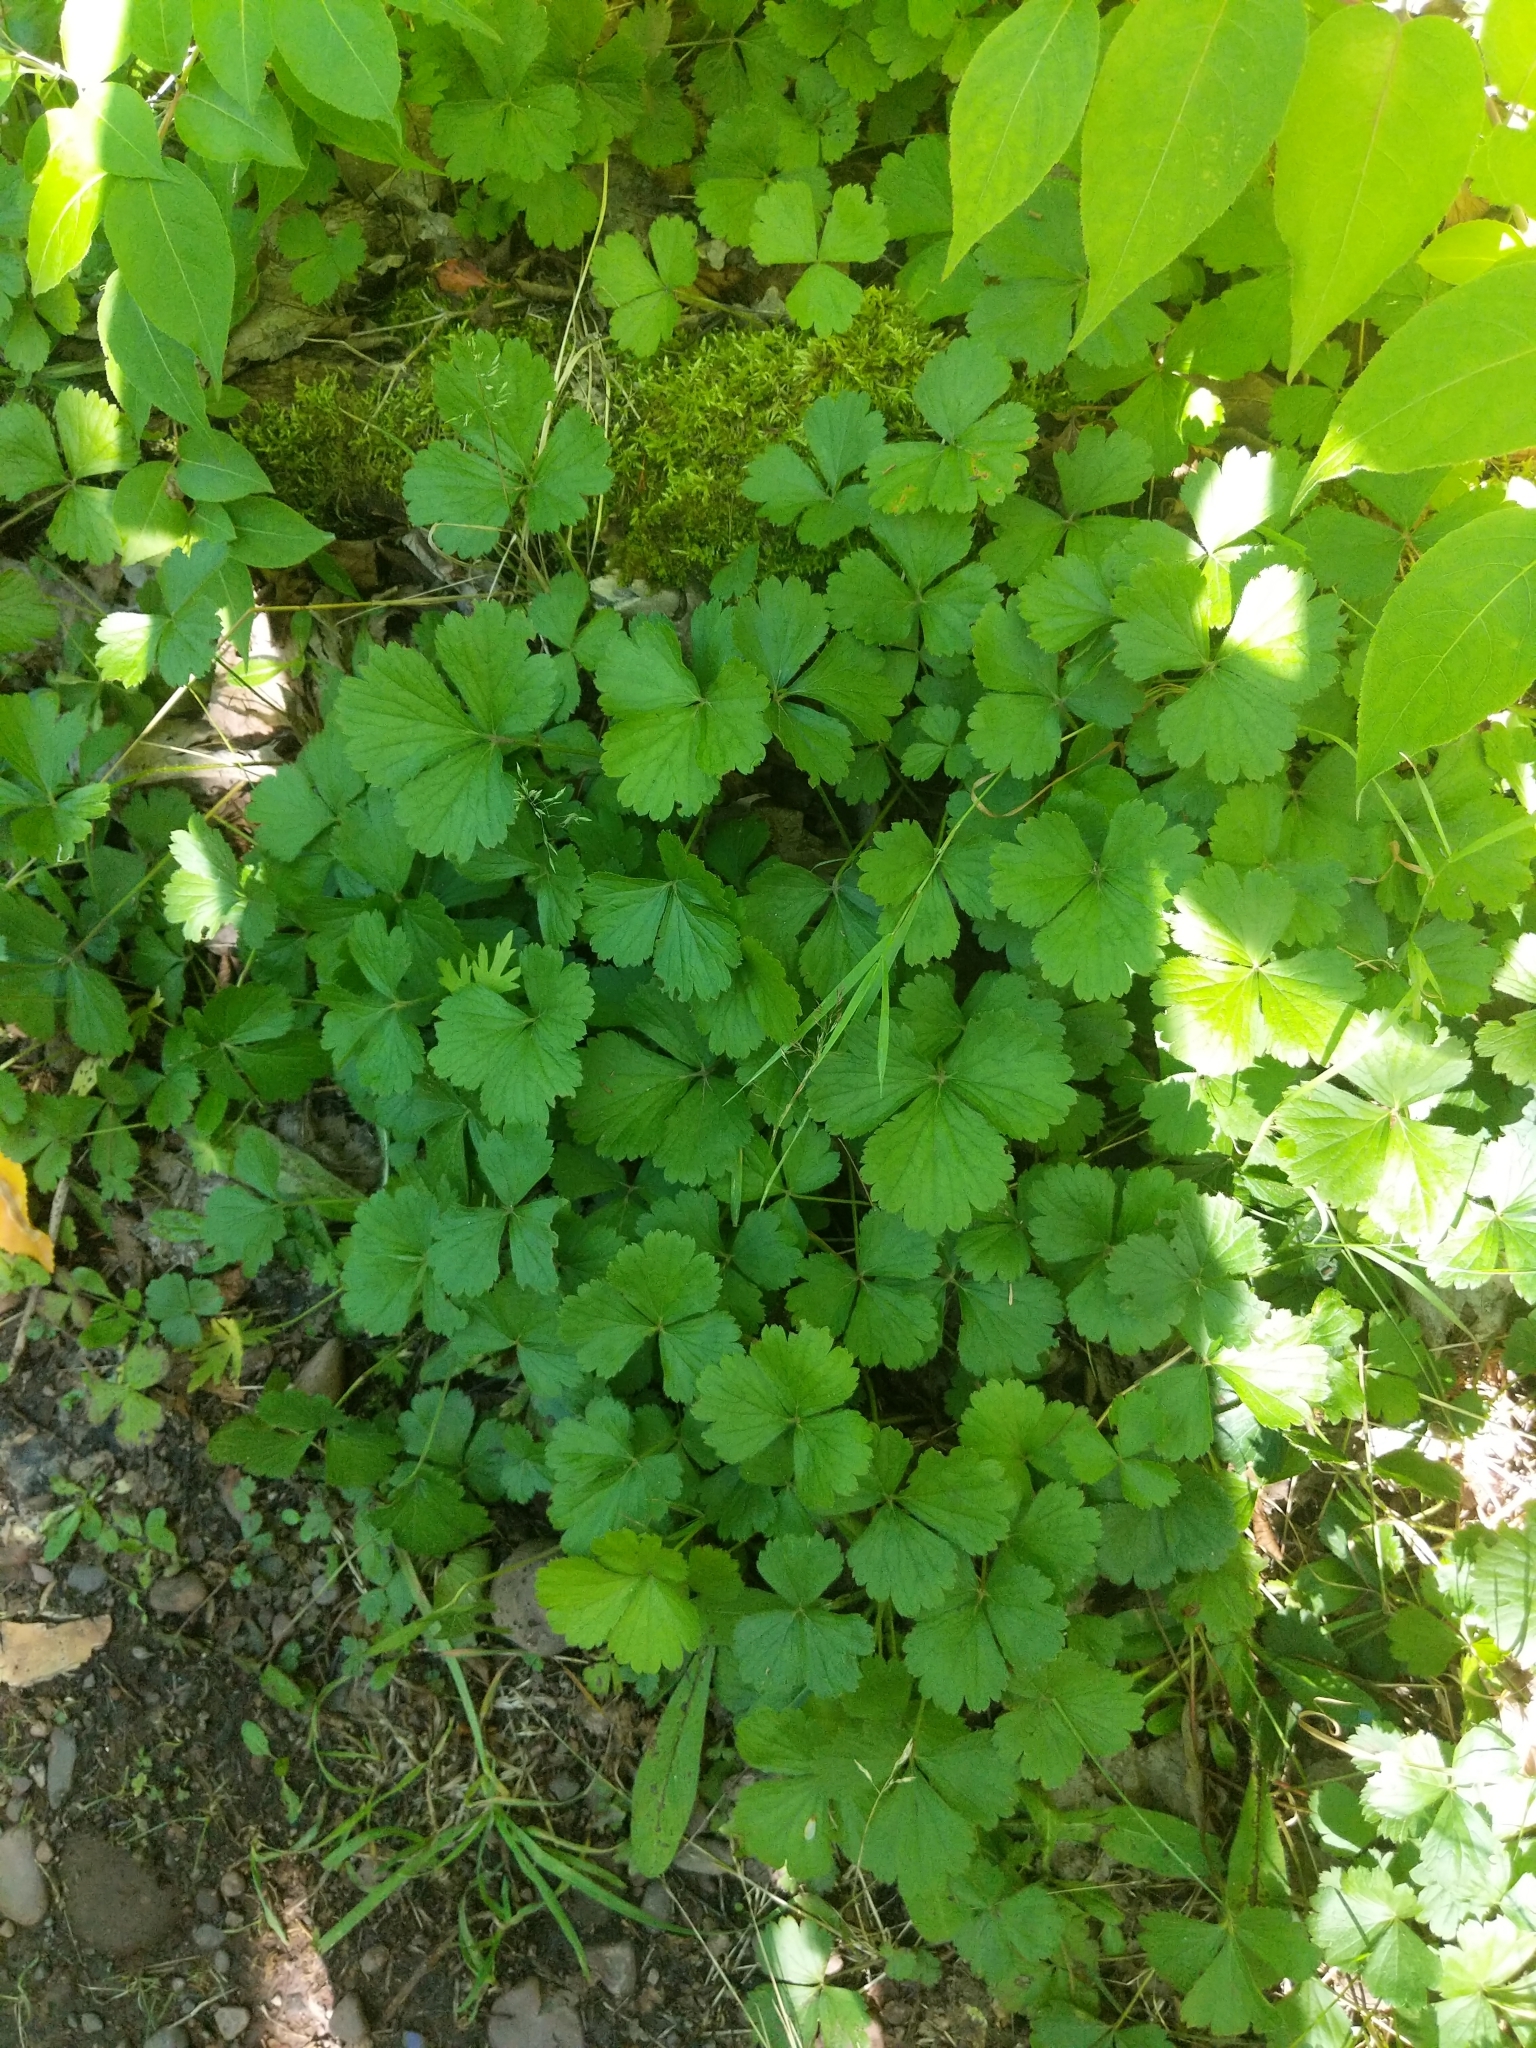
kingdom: Plantae
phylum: Tracheophyta
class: Magnoliopsida
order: Rosales
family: Rosaceae
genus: Geum
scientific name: Geum fragarioides
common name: Appalachian barren strawberry
